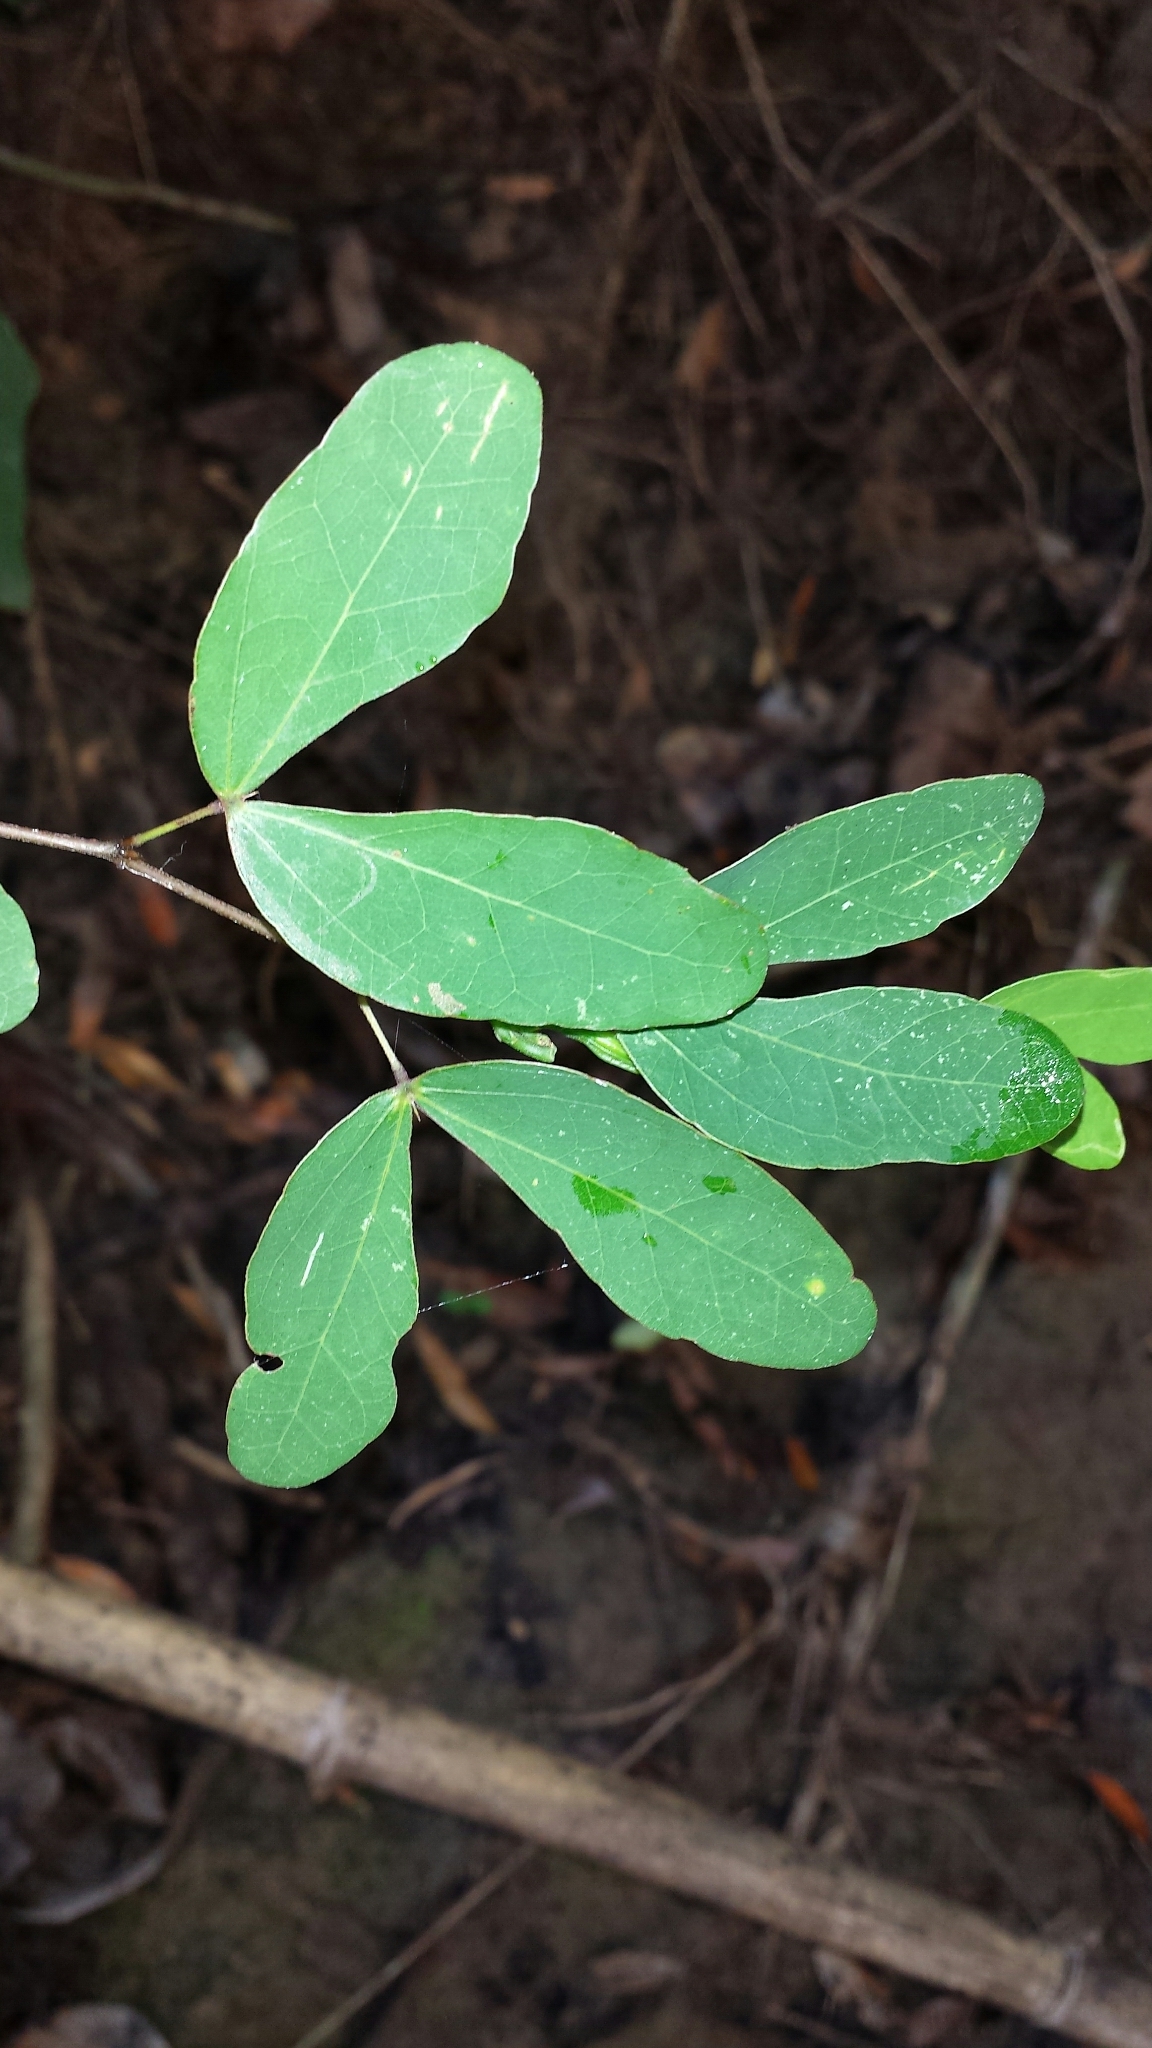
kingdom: Plantae
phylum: Tracheophyta
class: Magnoliopsida
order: Fabales
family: Fabaceae
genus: Bauhinia
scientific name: Bauhinia madagascariensis
